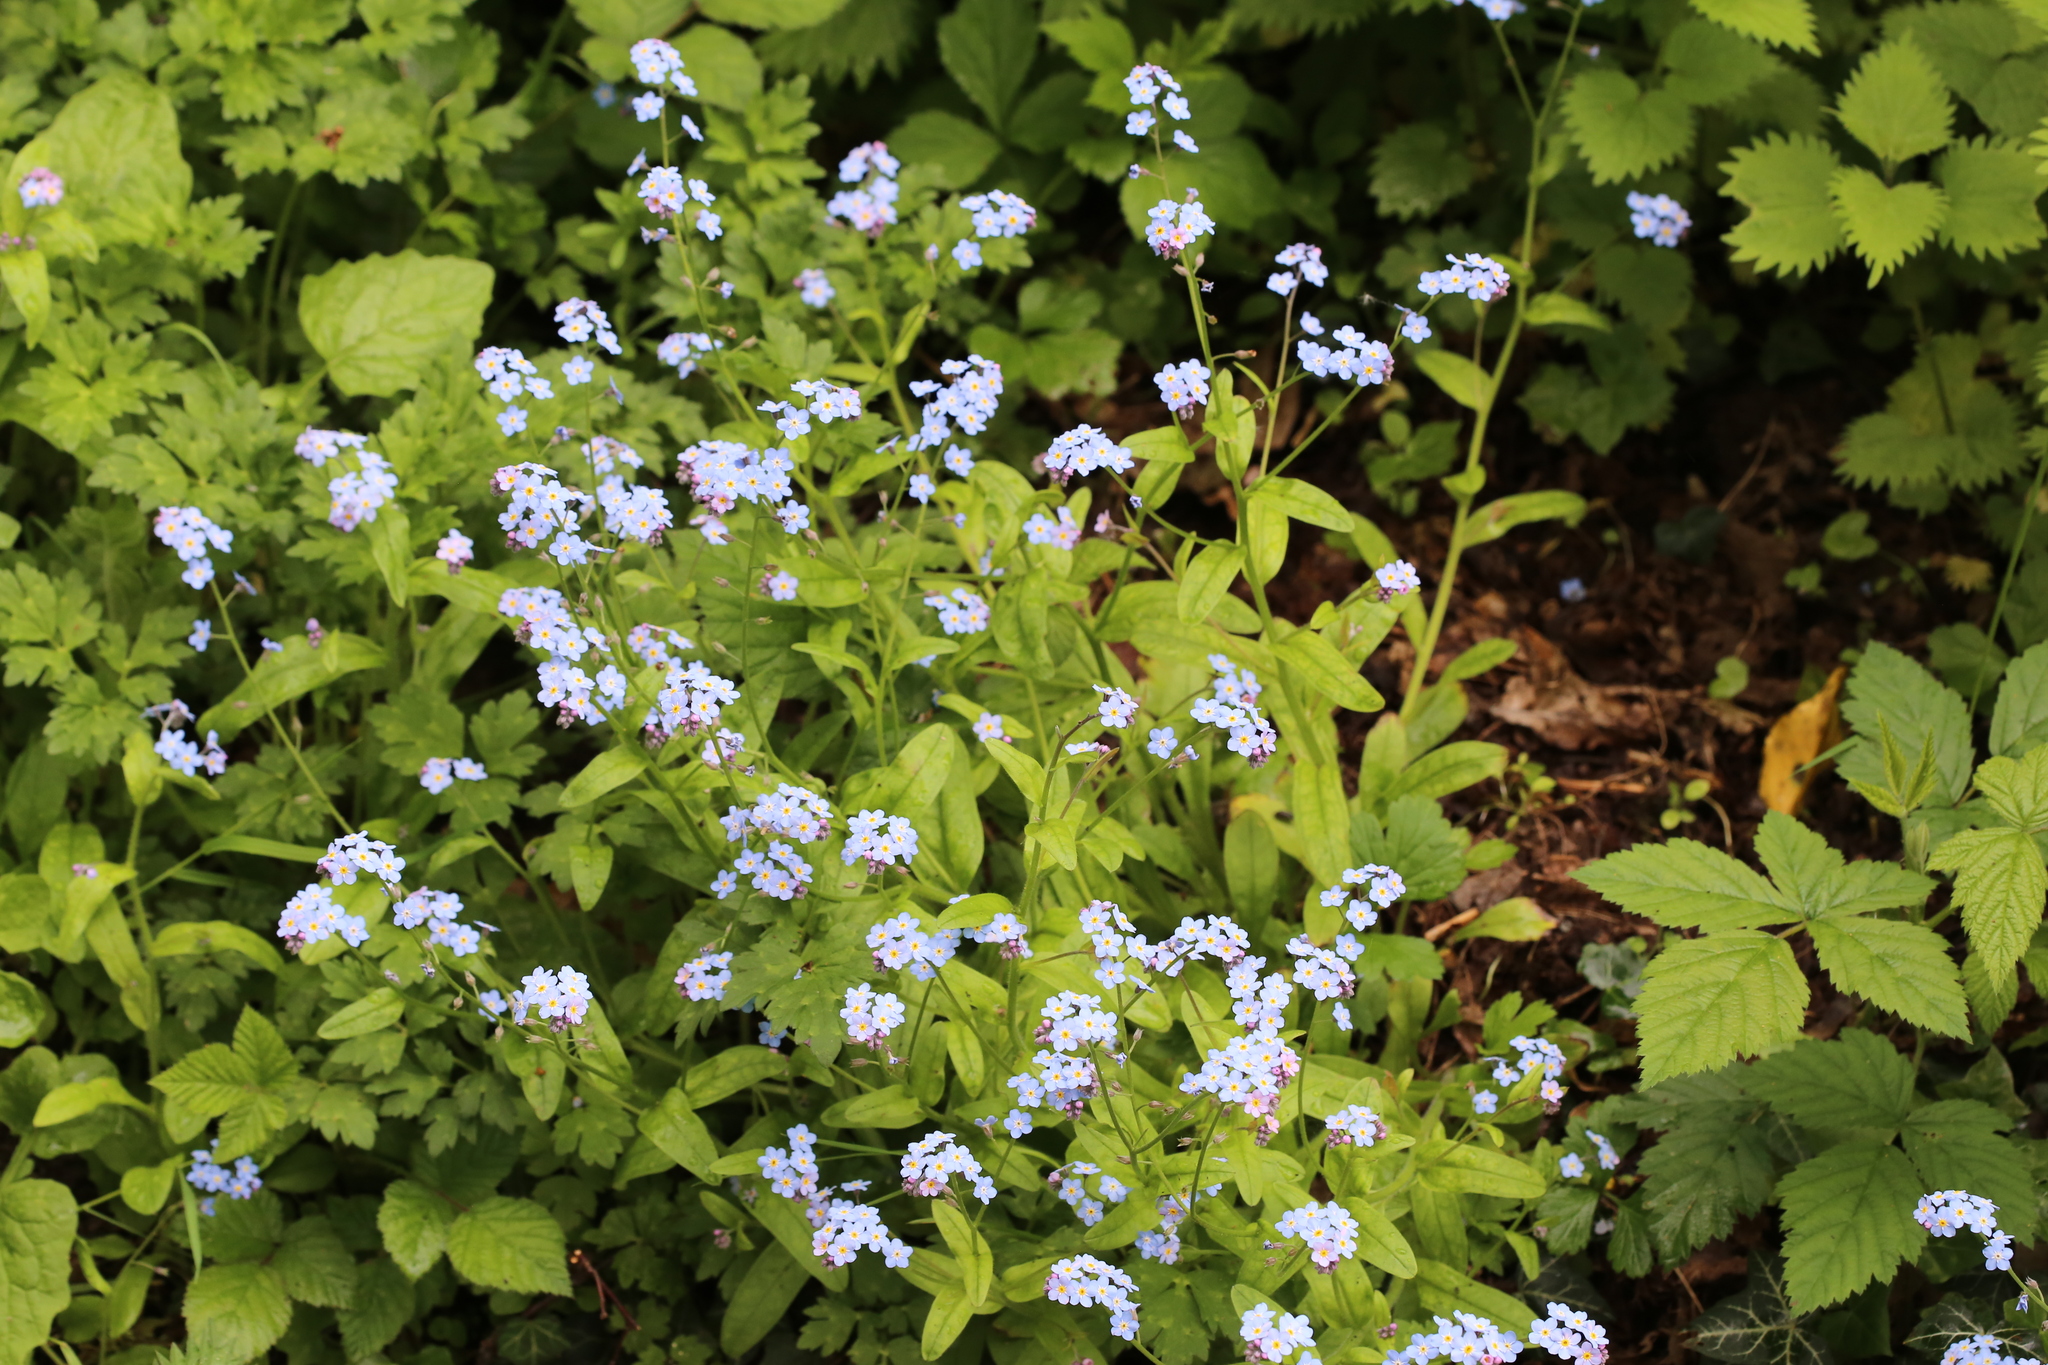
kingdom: Plantae
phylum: Tracheophyta
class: Magnoliopsida
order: Boraginales
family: Boraginaceae
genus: Myosotis
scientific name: Myosotis sylvatica
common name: Wood forget-me-not
